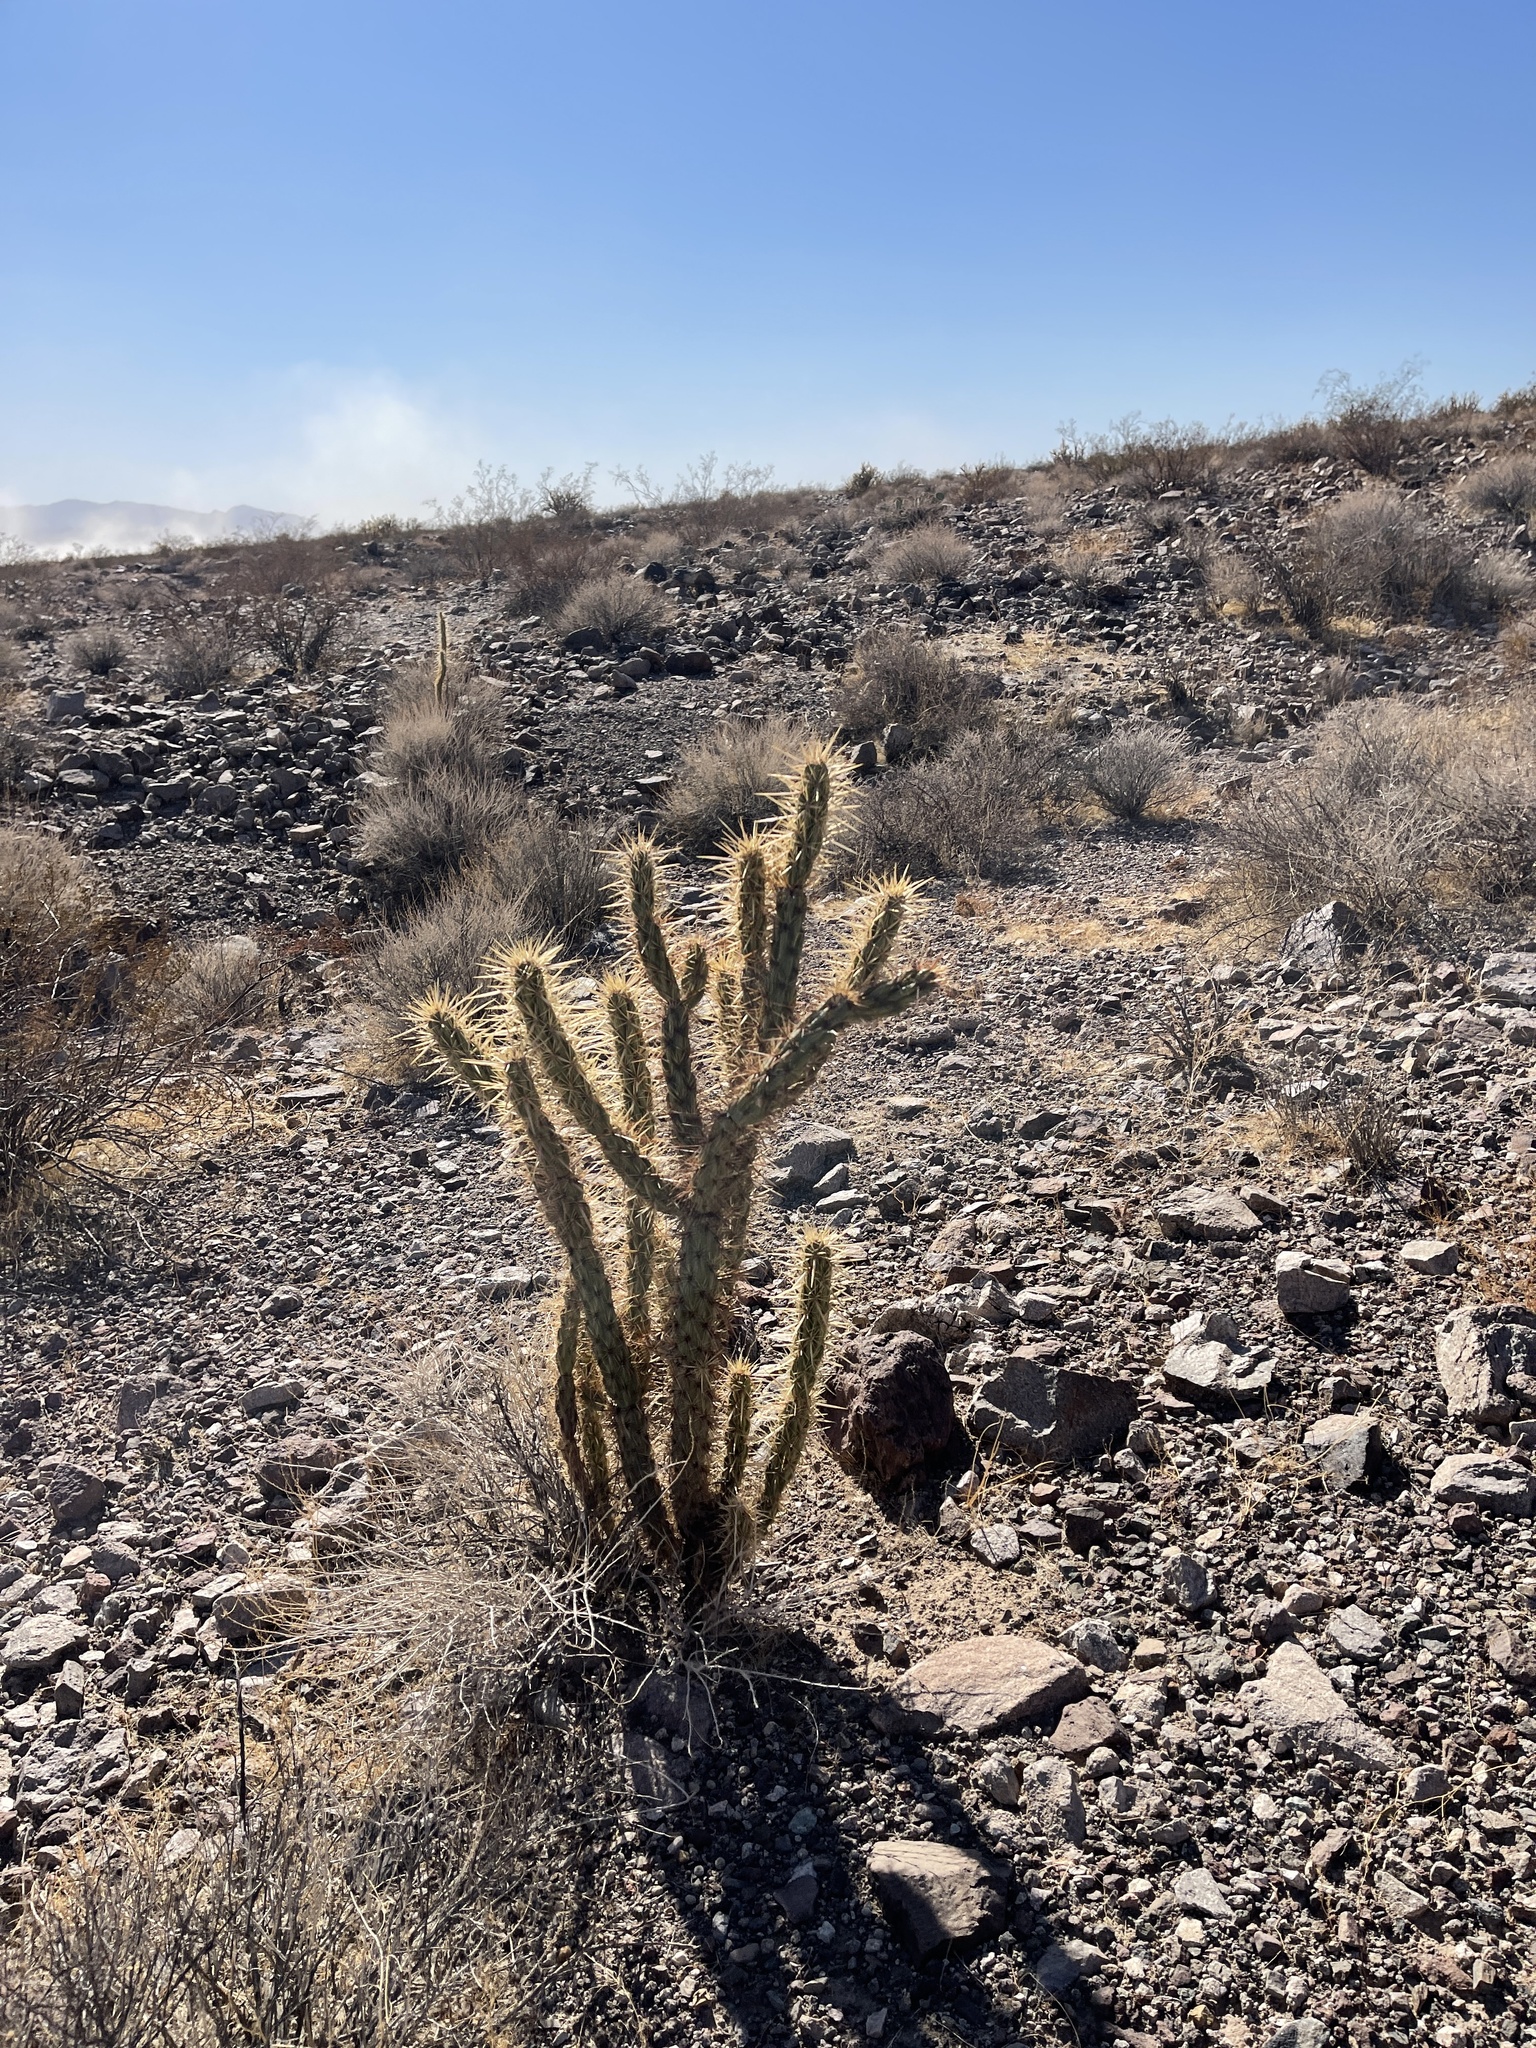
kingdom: Plantae
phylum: Tracheophyta
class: Magnoliopsida
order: Caryophyllales
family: Cactaceae
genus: Cylindropuntia
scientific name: Cylindropuntia acanthocarpa
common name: Buckhorn cholla
